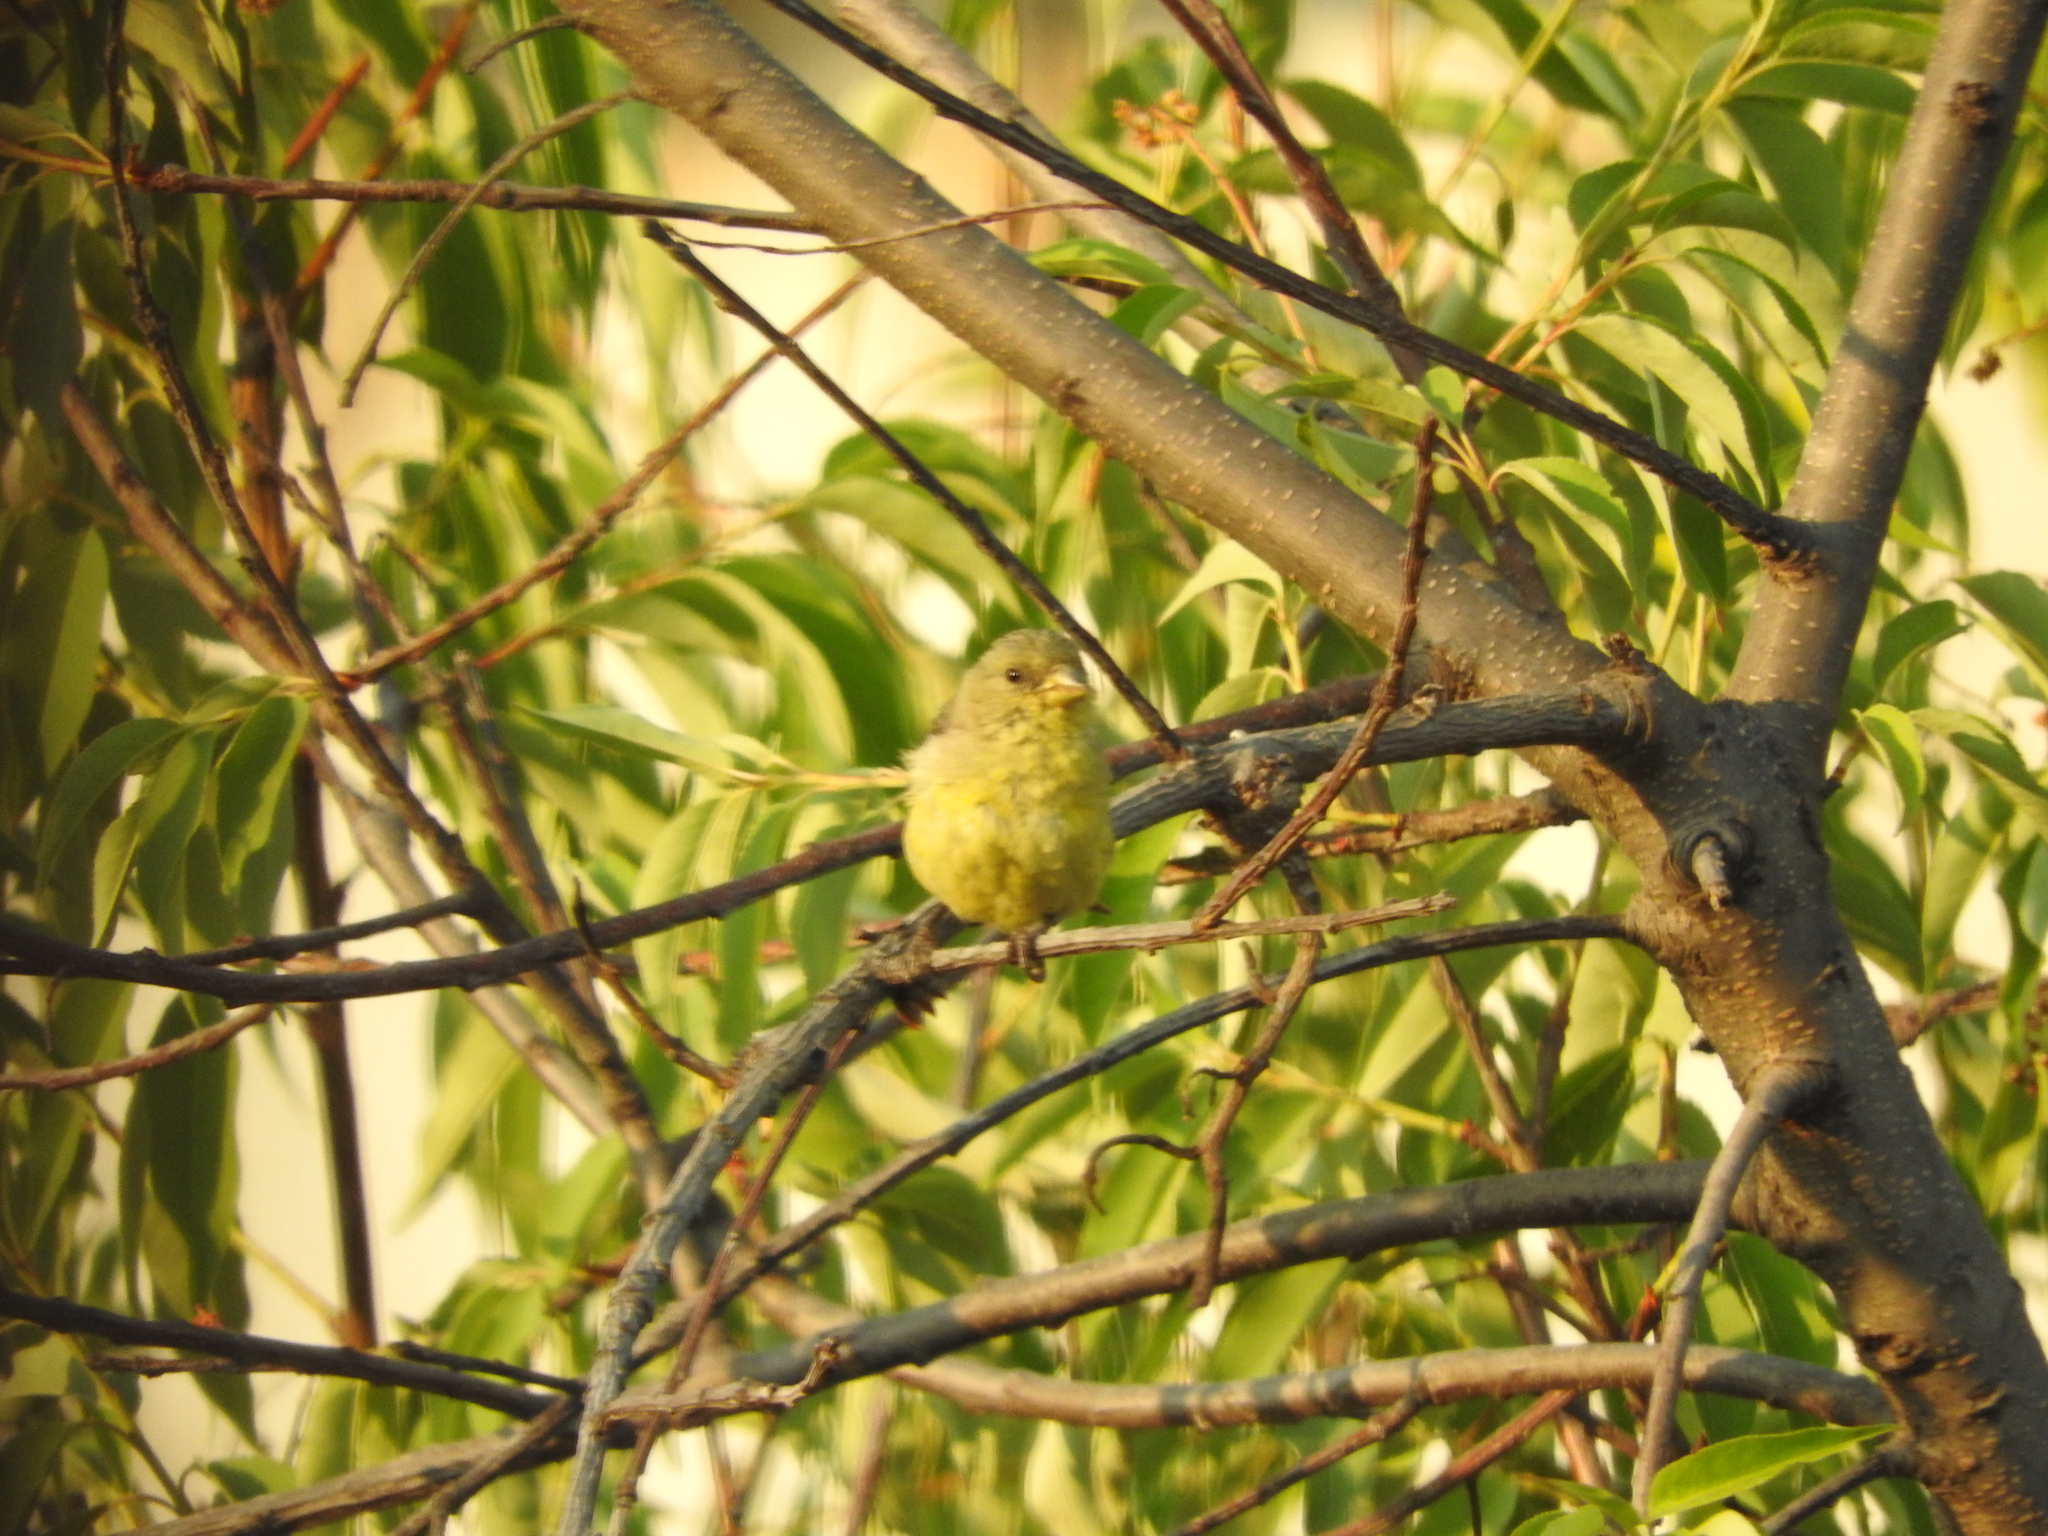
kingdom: Animalia
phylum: Chordata
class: Aves
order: Passeriformes
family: Fringillidae
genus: Spinus
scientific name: Spinus psaltria
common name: Lesser goldfinch
